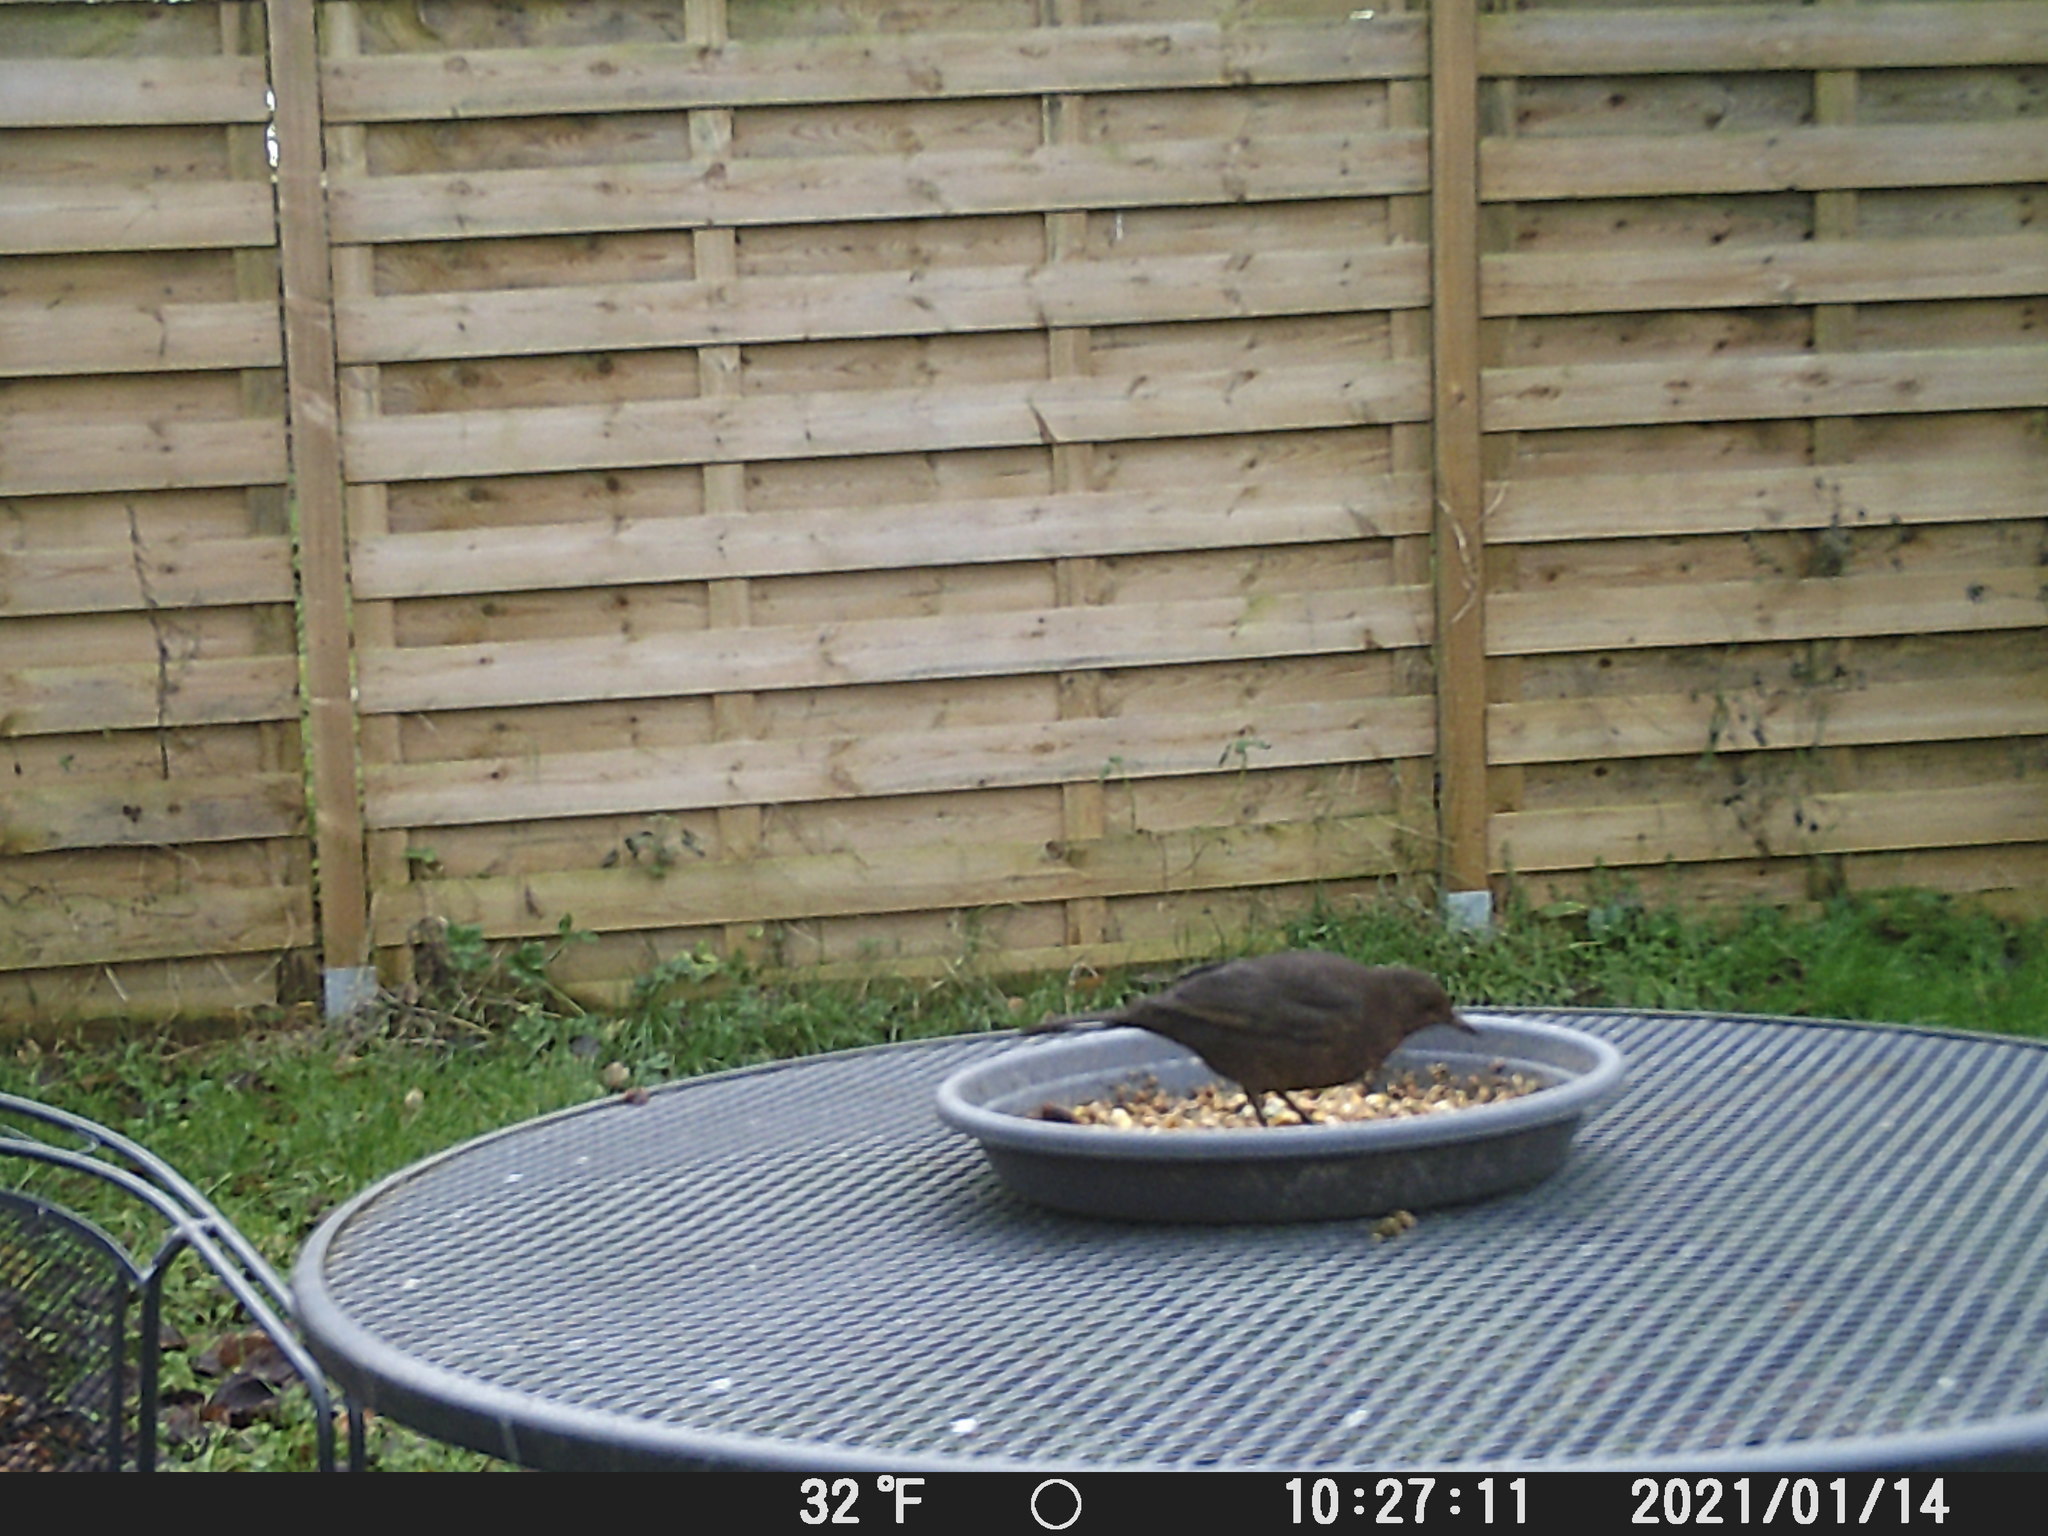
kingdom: Animalia
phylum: Chordata
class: Aves
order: Passeriformes
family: Turdidae
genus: Turdus
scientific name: Turdus merula
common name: Common blackbird
